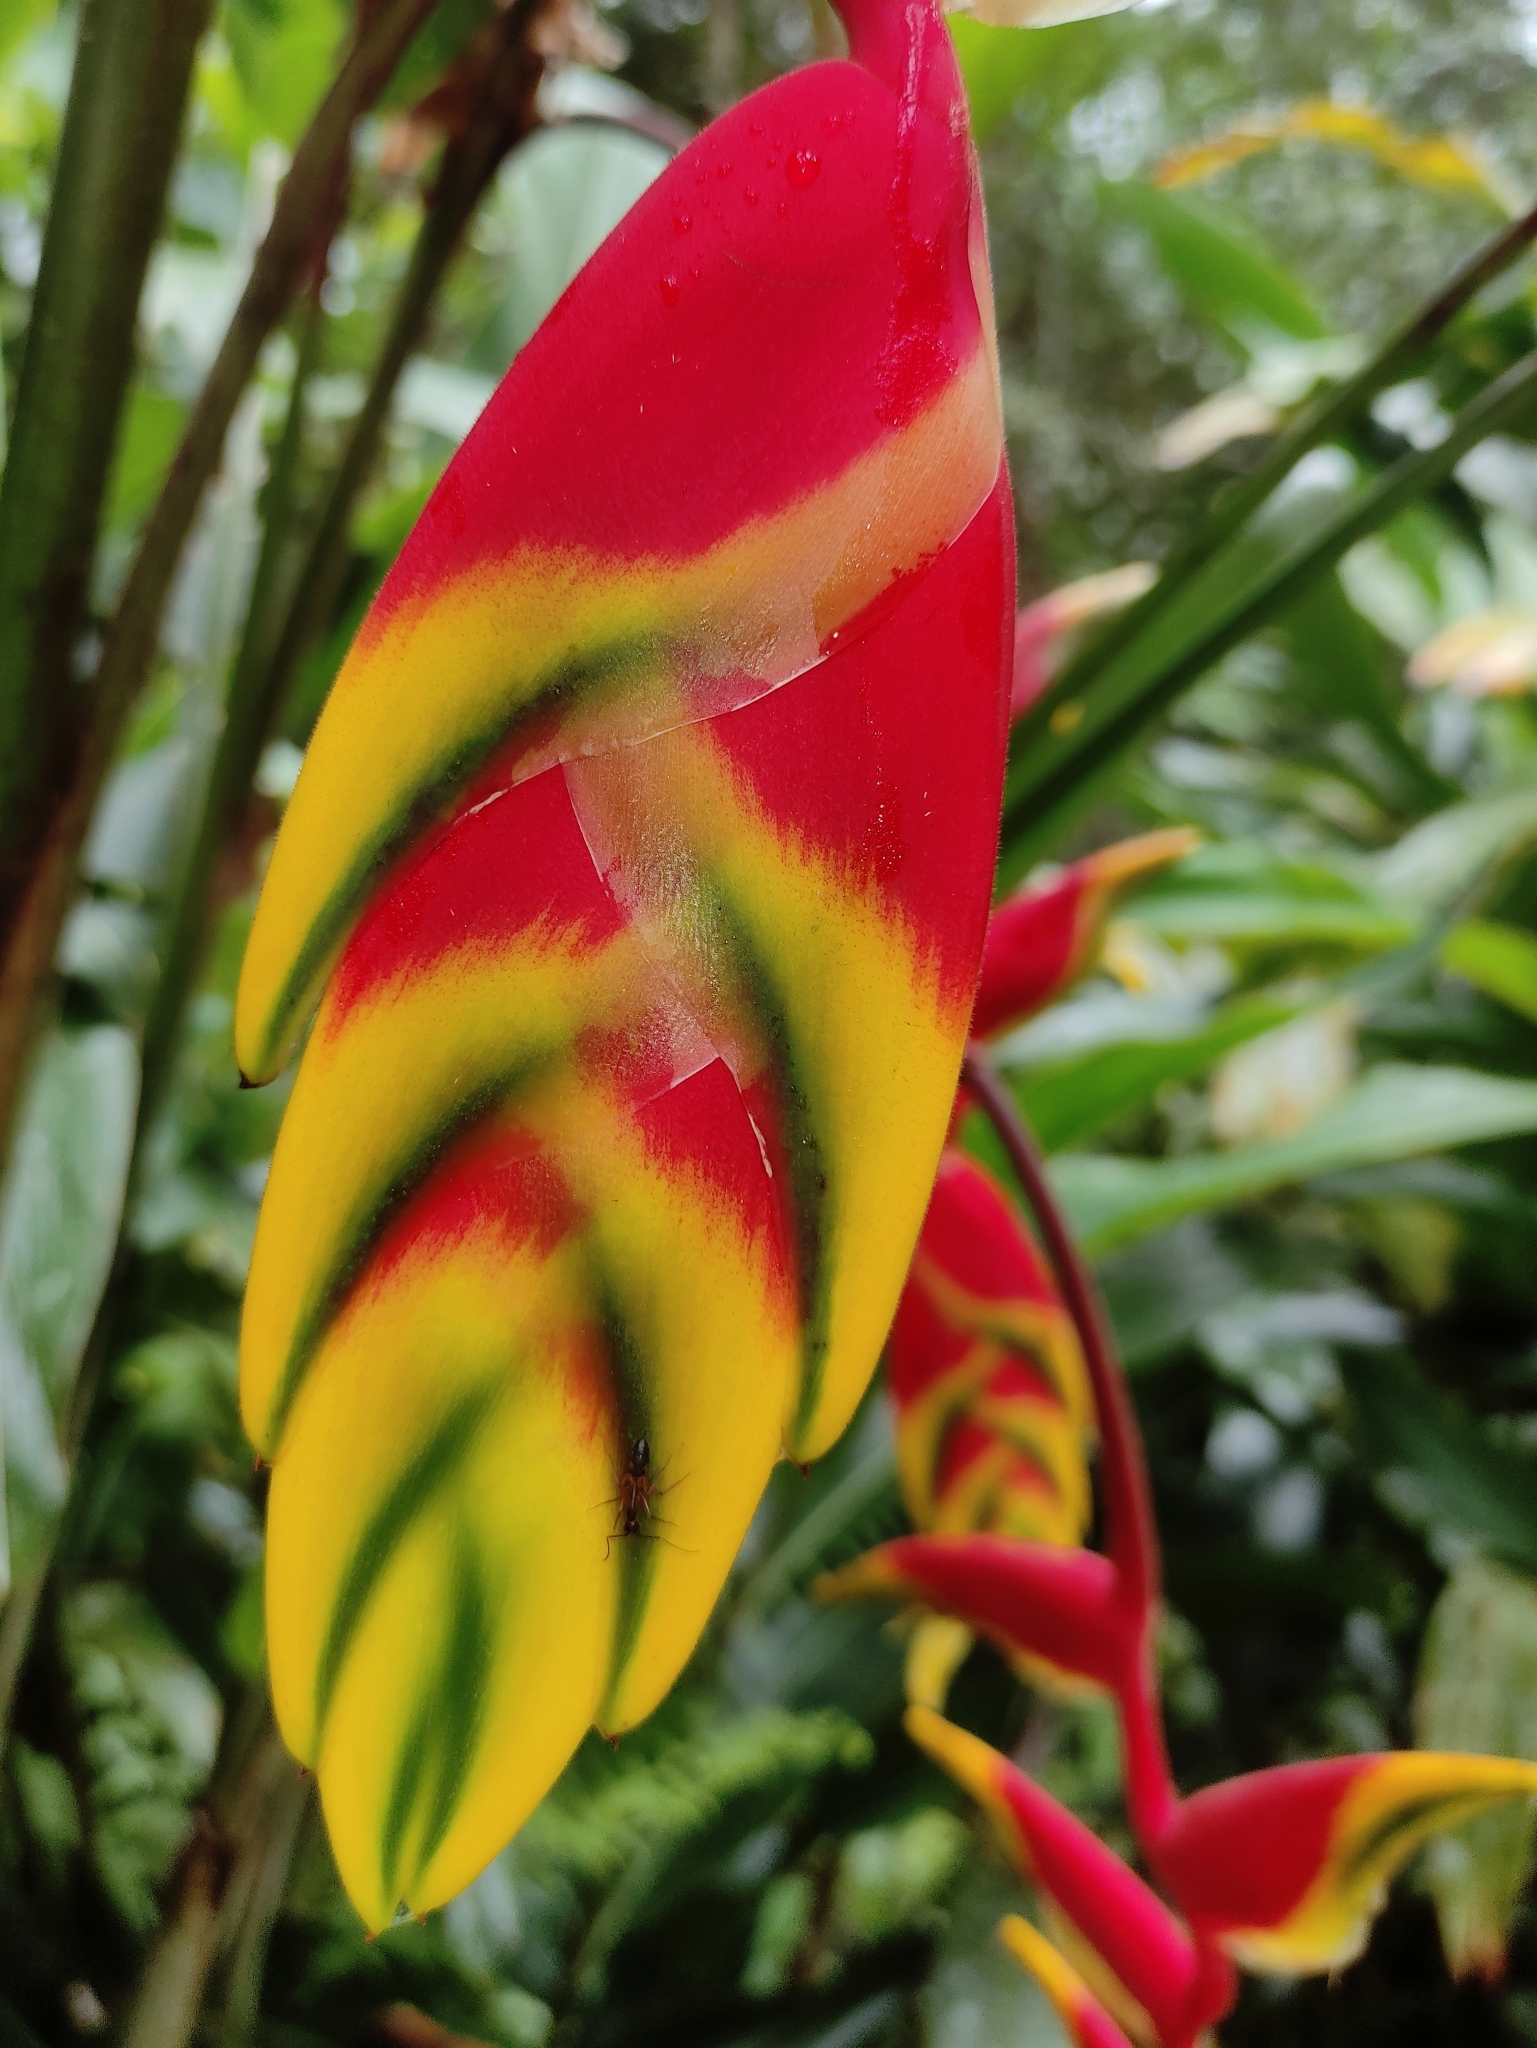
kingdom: Plantae
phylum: Tracheophyta
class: Liliopsida
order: Zingiberales
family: Heliconiaceae
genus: Heliconia
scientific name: Heliconia rostrata
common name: False bird of paradise
